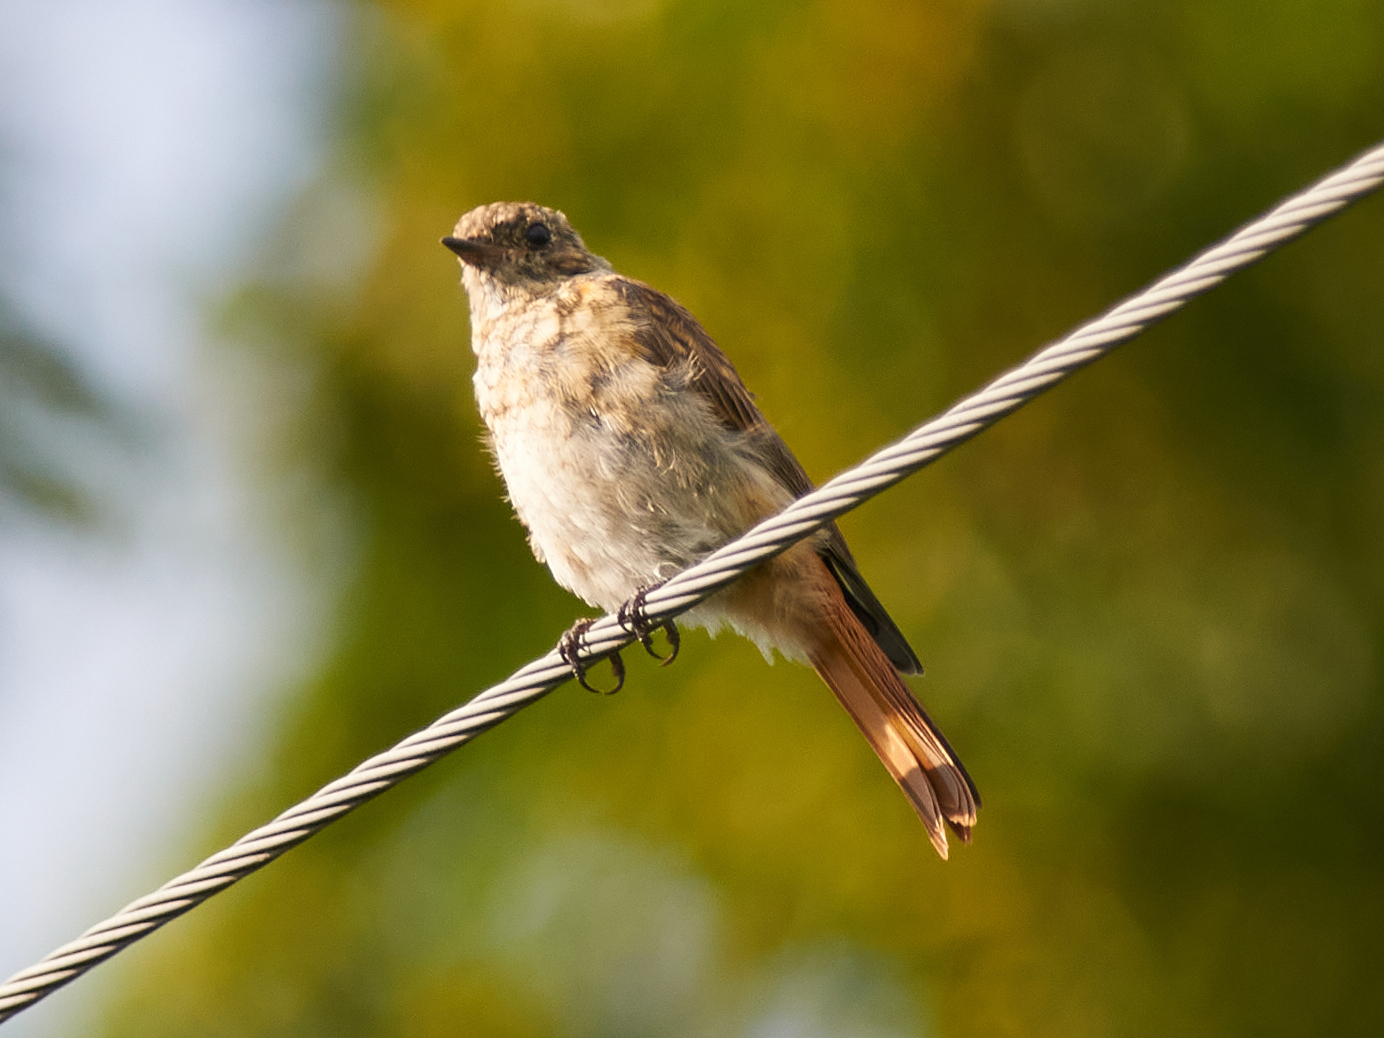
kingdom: Animalia
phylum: Chordata
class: Aves
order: Passeriformes
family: Muscicapidae
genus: Phoenicurus
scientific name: Phoenicurus phoenicurus
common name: Common redstart
